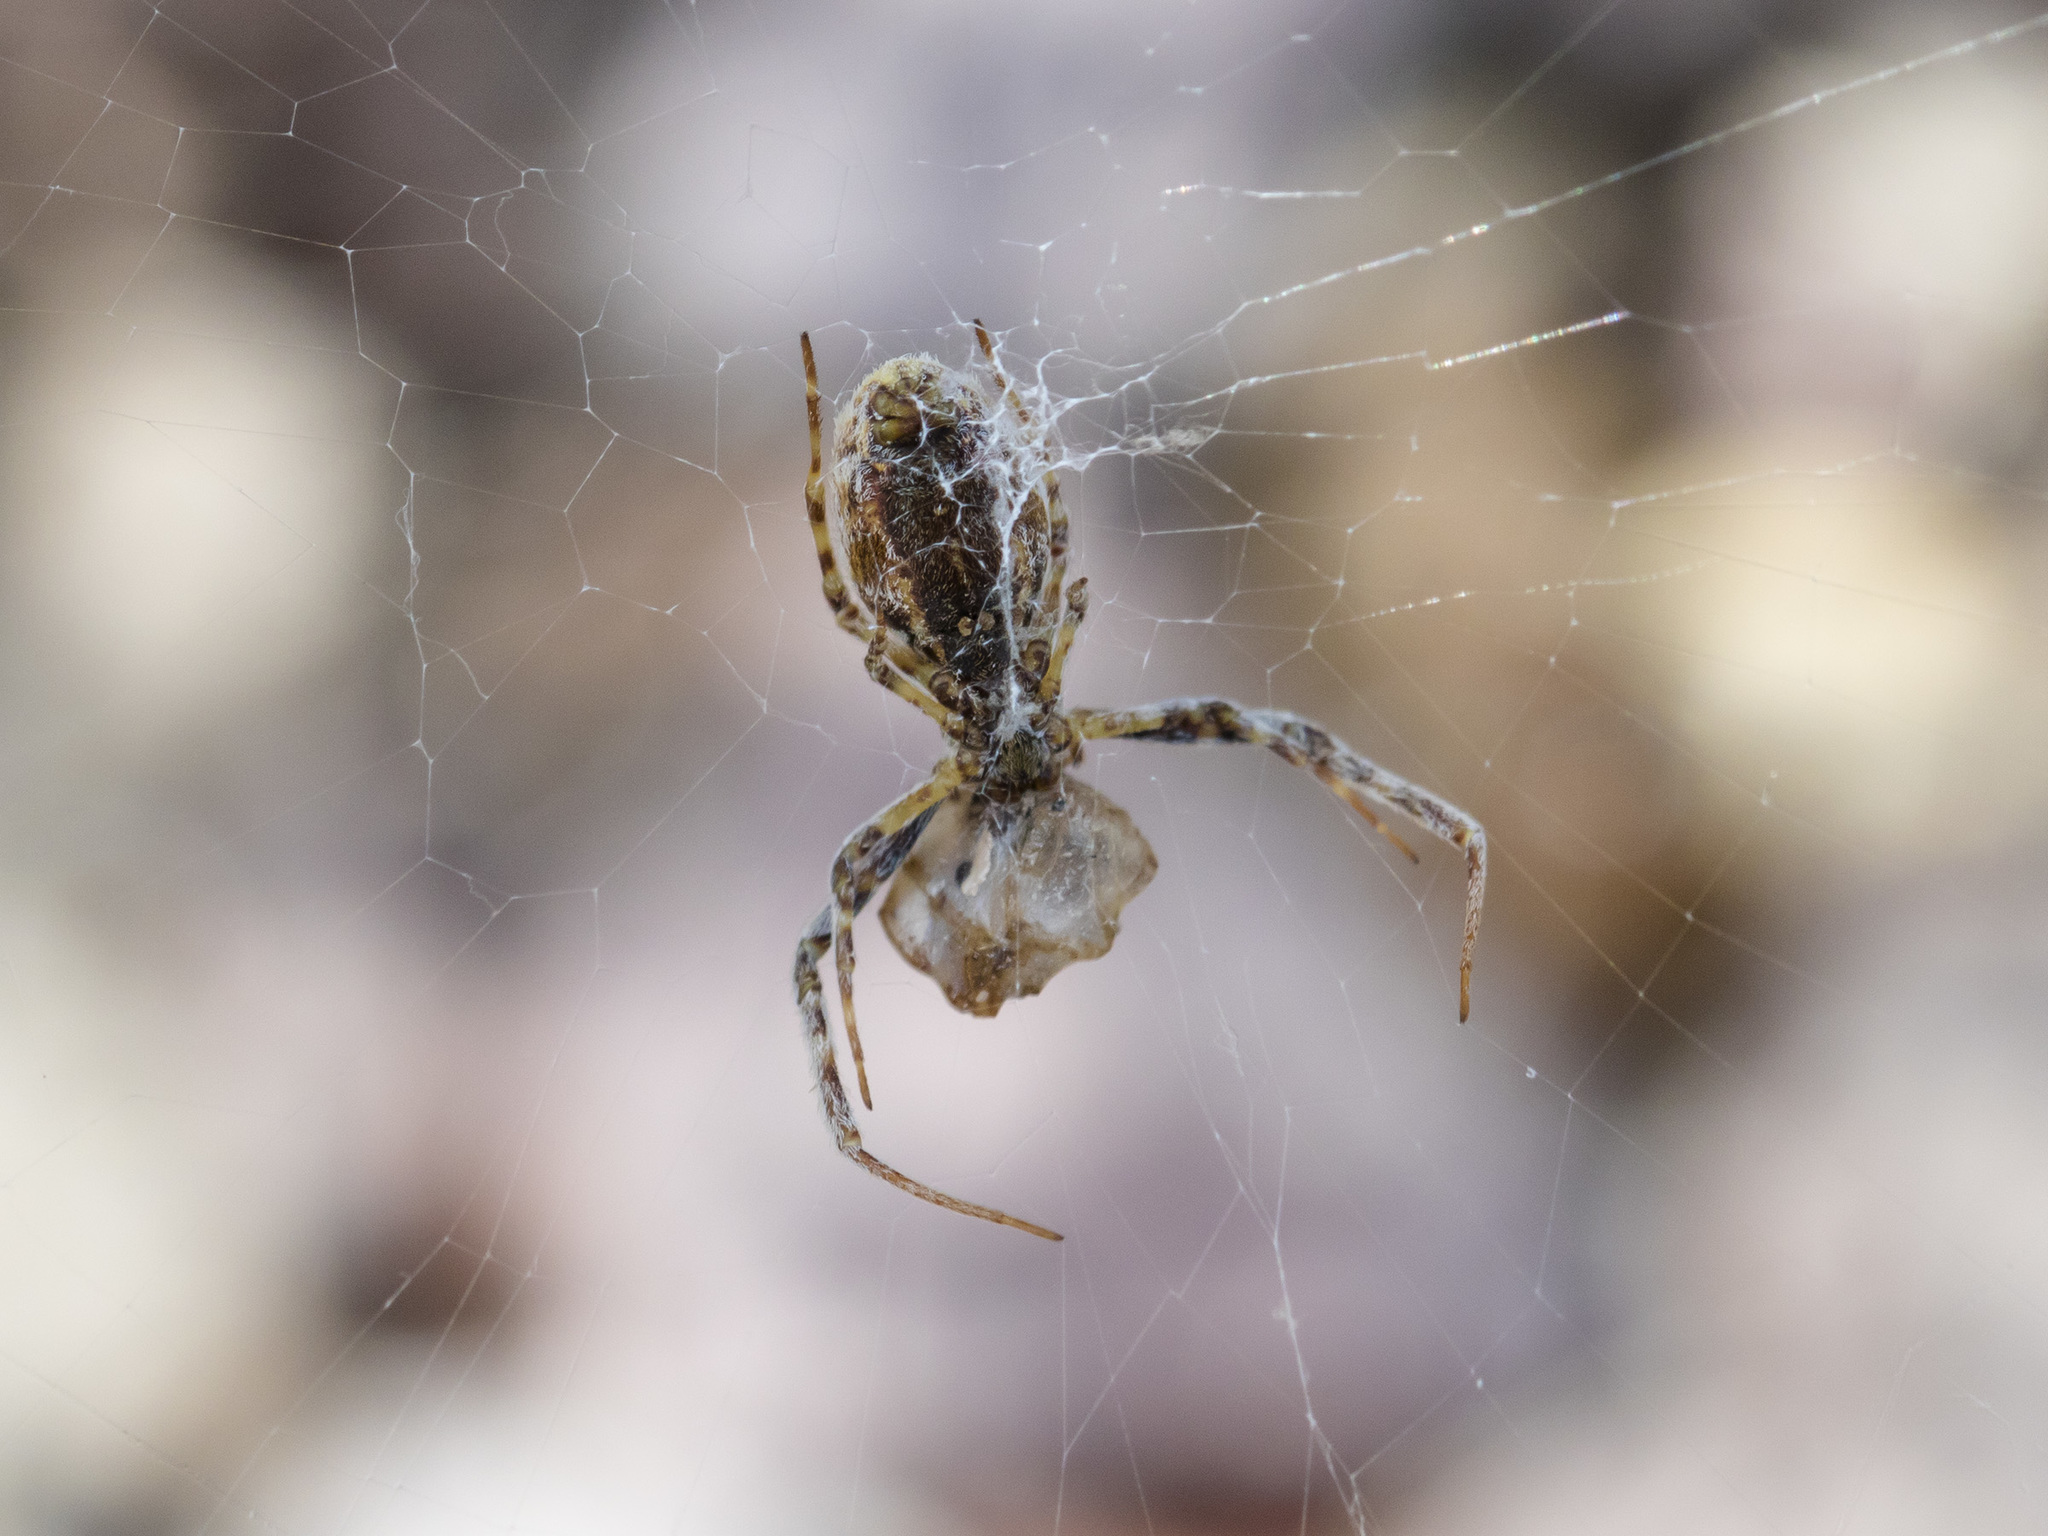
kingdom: Animalia
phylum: Arthropoda
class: Arachnida
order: Araneae
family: Uloboridae
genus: Uloborus
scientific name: Uloborus walckenaerius
